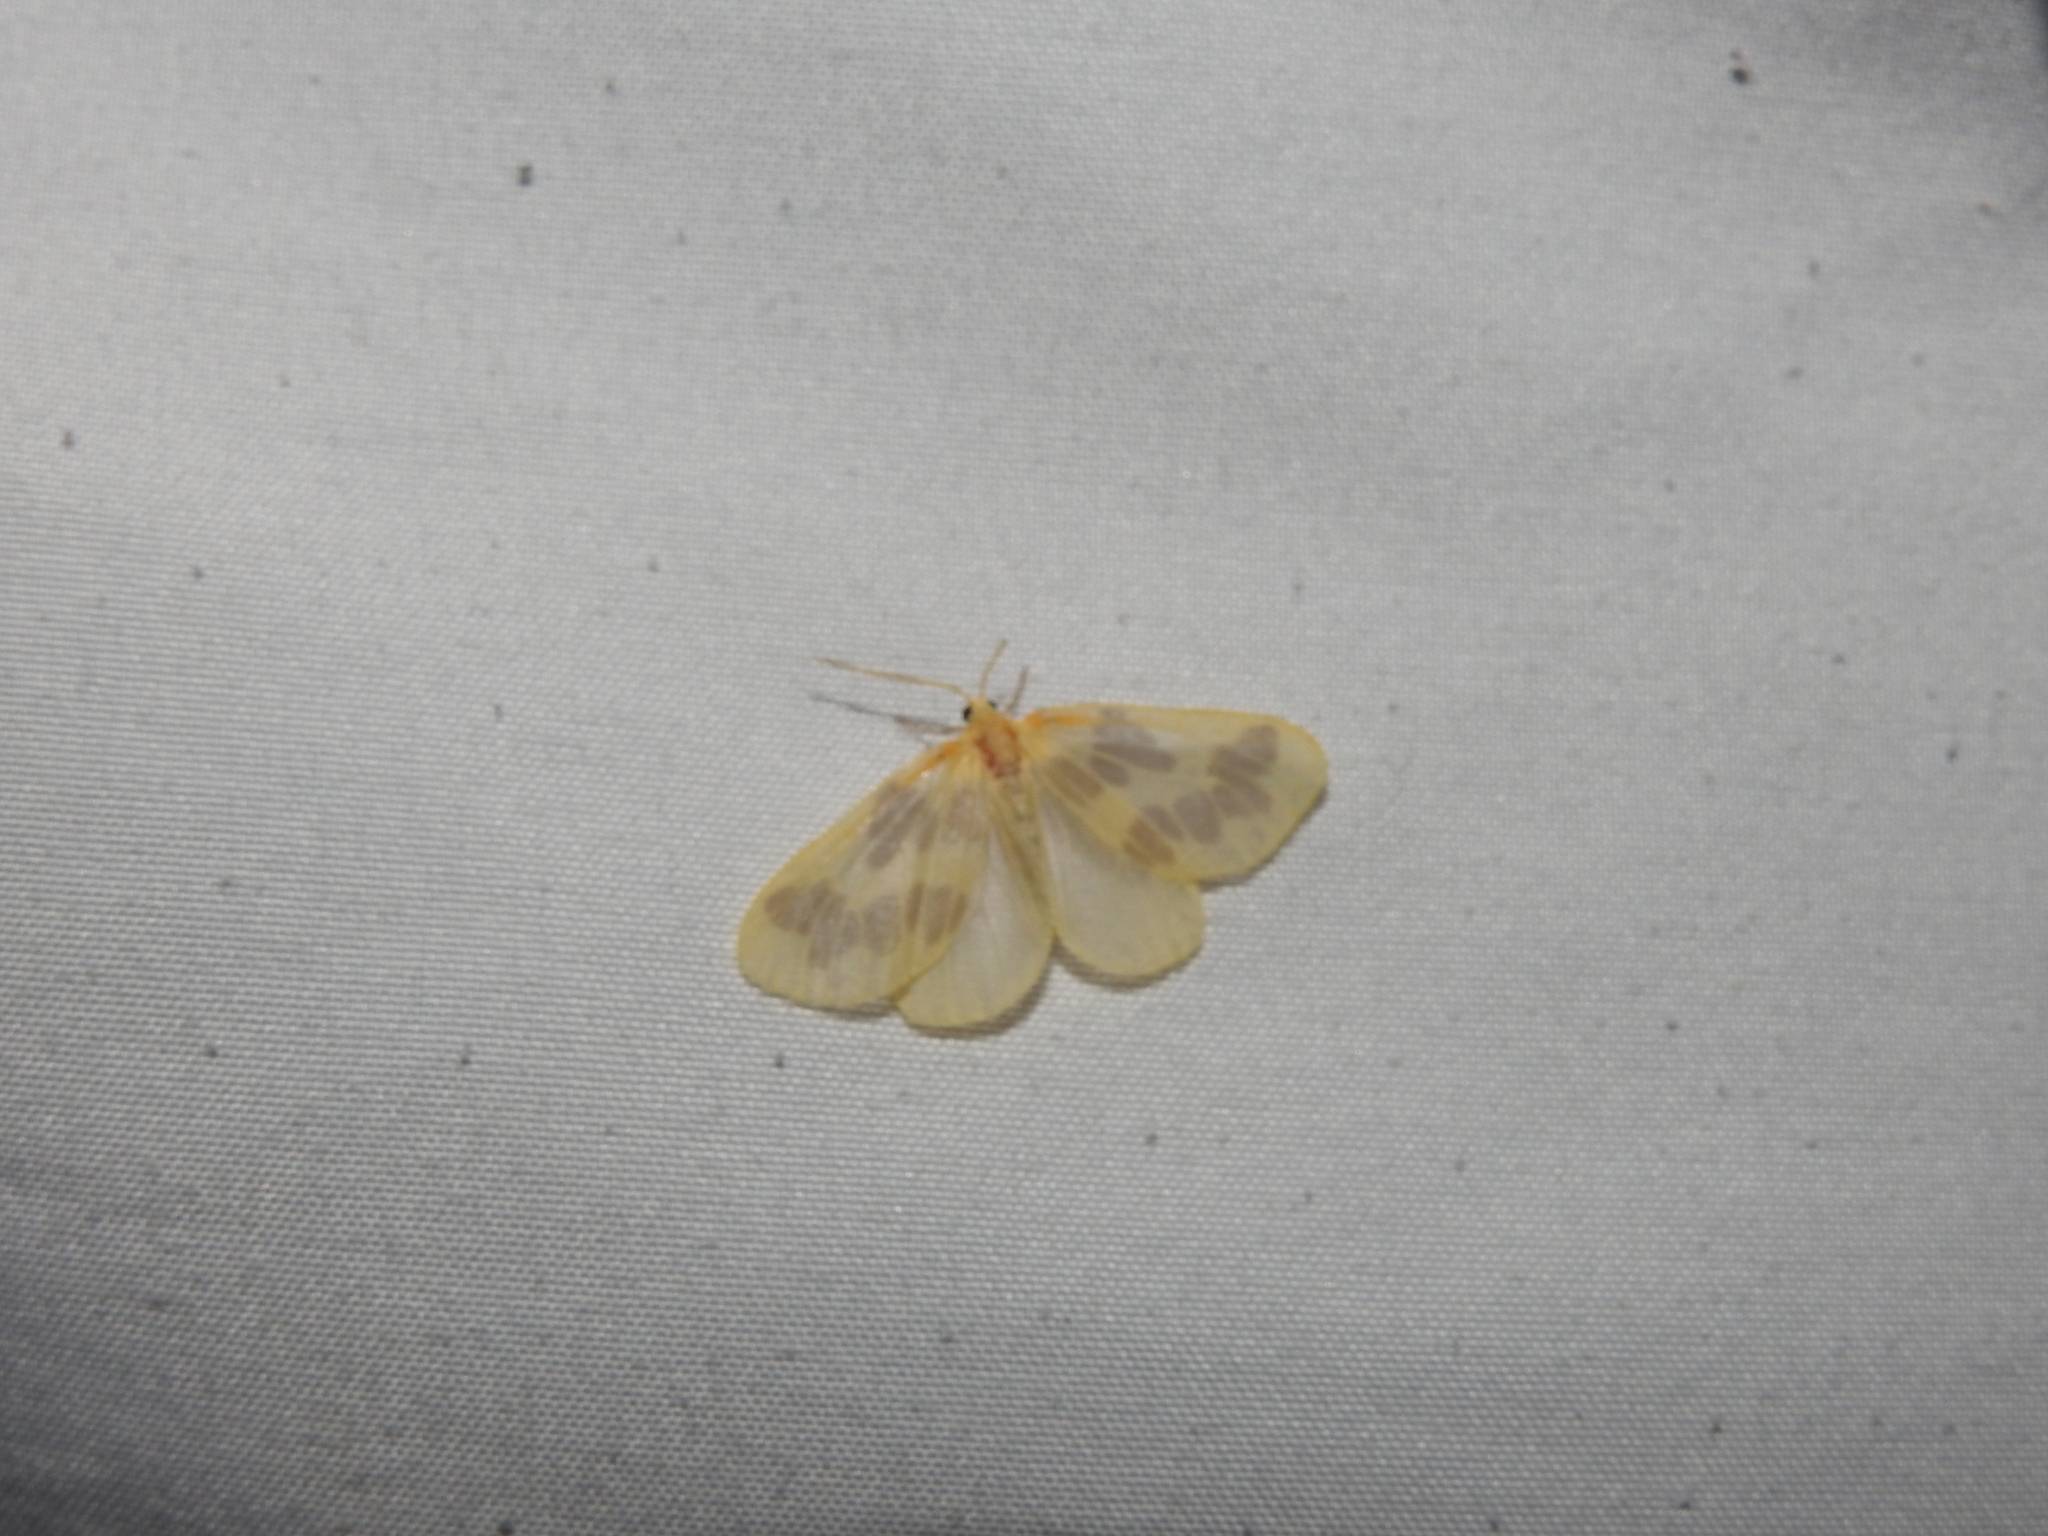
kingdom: Animalia
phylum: Arthropoda
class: Insecta
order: Lepidoptera
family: Geometridae
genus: Eubaphe
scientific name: Eubaphe mendica
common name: Beggar
